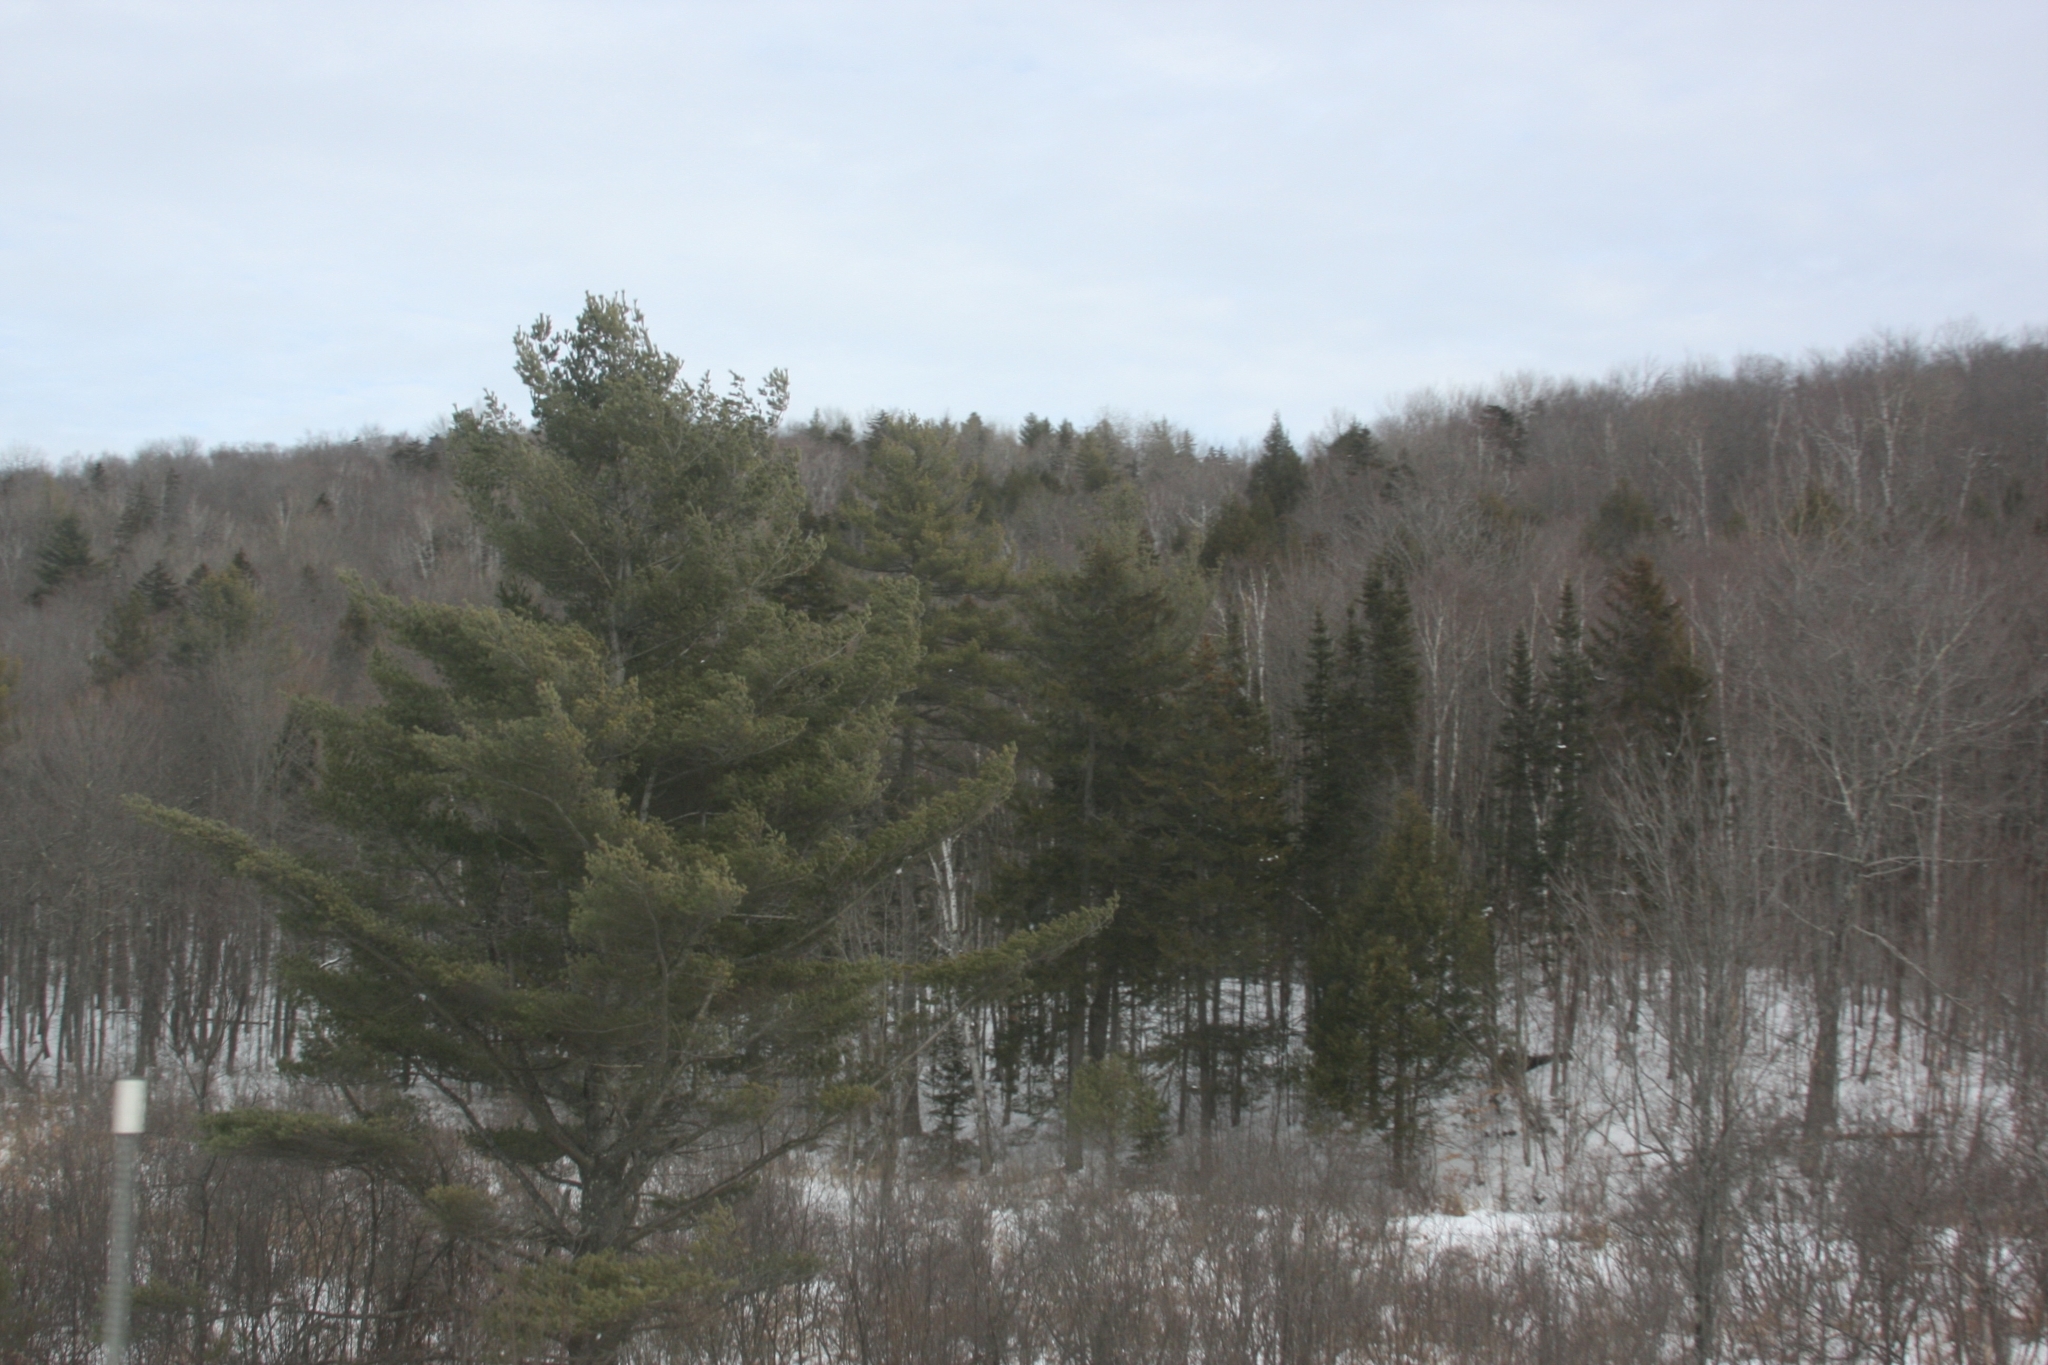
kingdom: Plantae
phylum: Tracheophyta
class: Pinopsida
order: Pinales
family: Pinaceae
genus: Pinus
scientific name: Pinus strobus
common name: Weymouth pine
